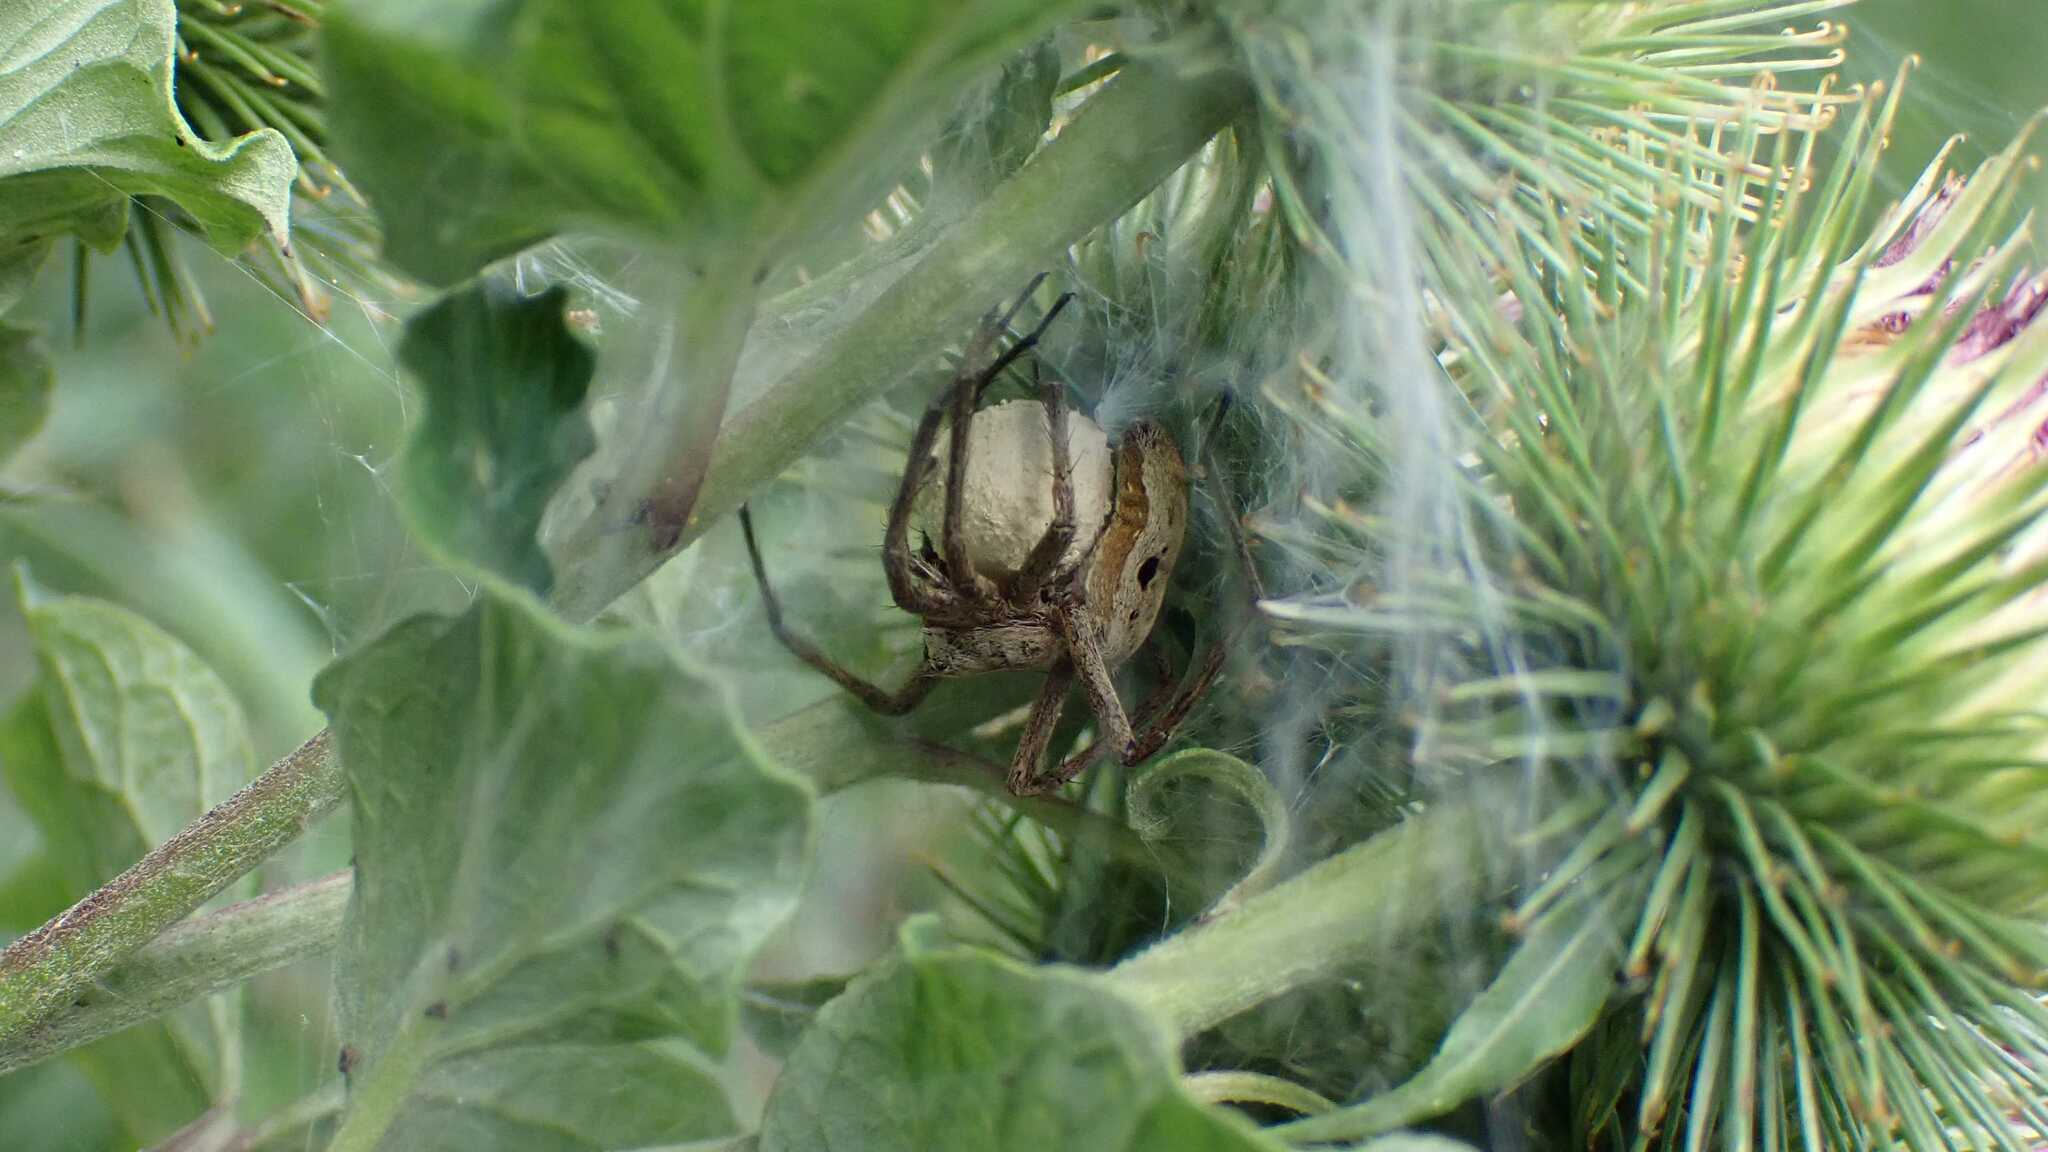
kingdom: Animalia
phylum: Arthropoda
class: Arachnida
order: Araneae
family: Pisauridae
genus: Pisaura
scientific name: Pisaura mirabilis
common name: Tent spider
